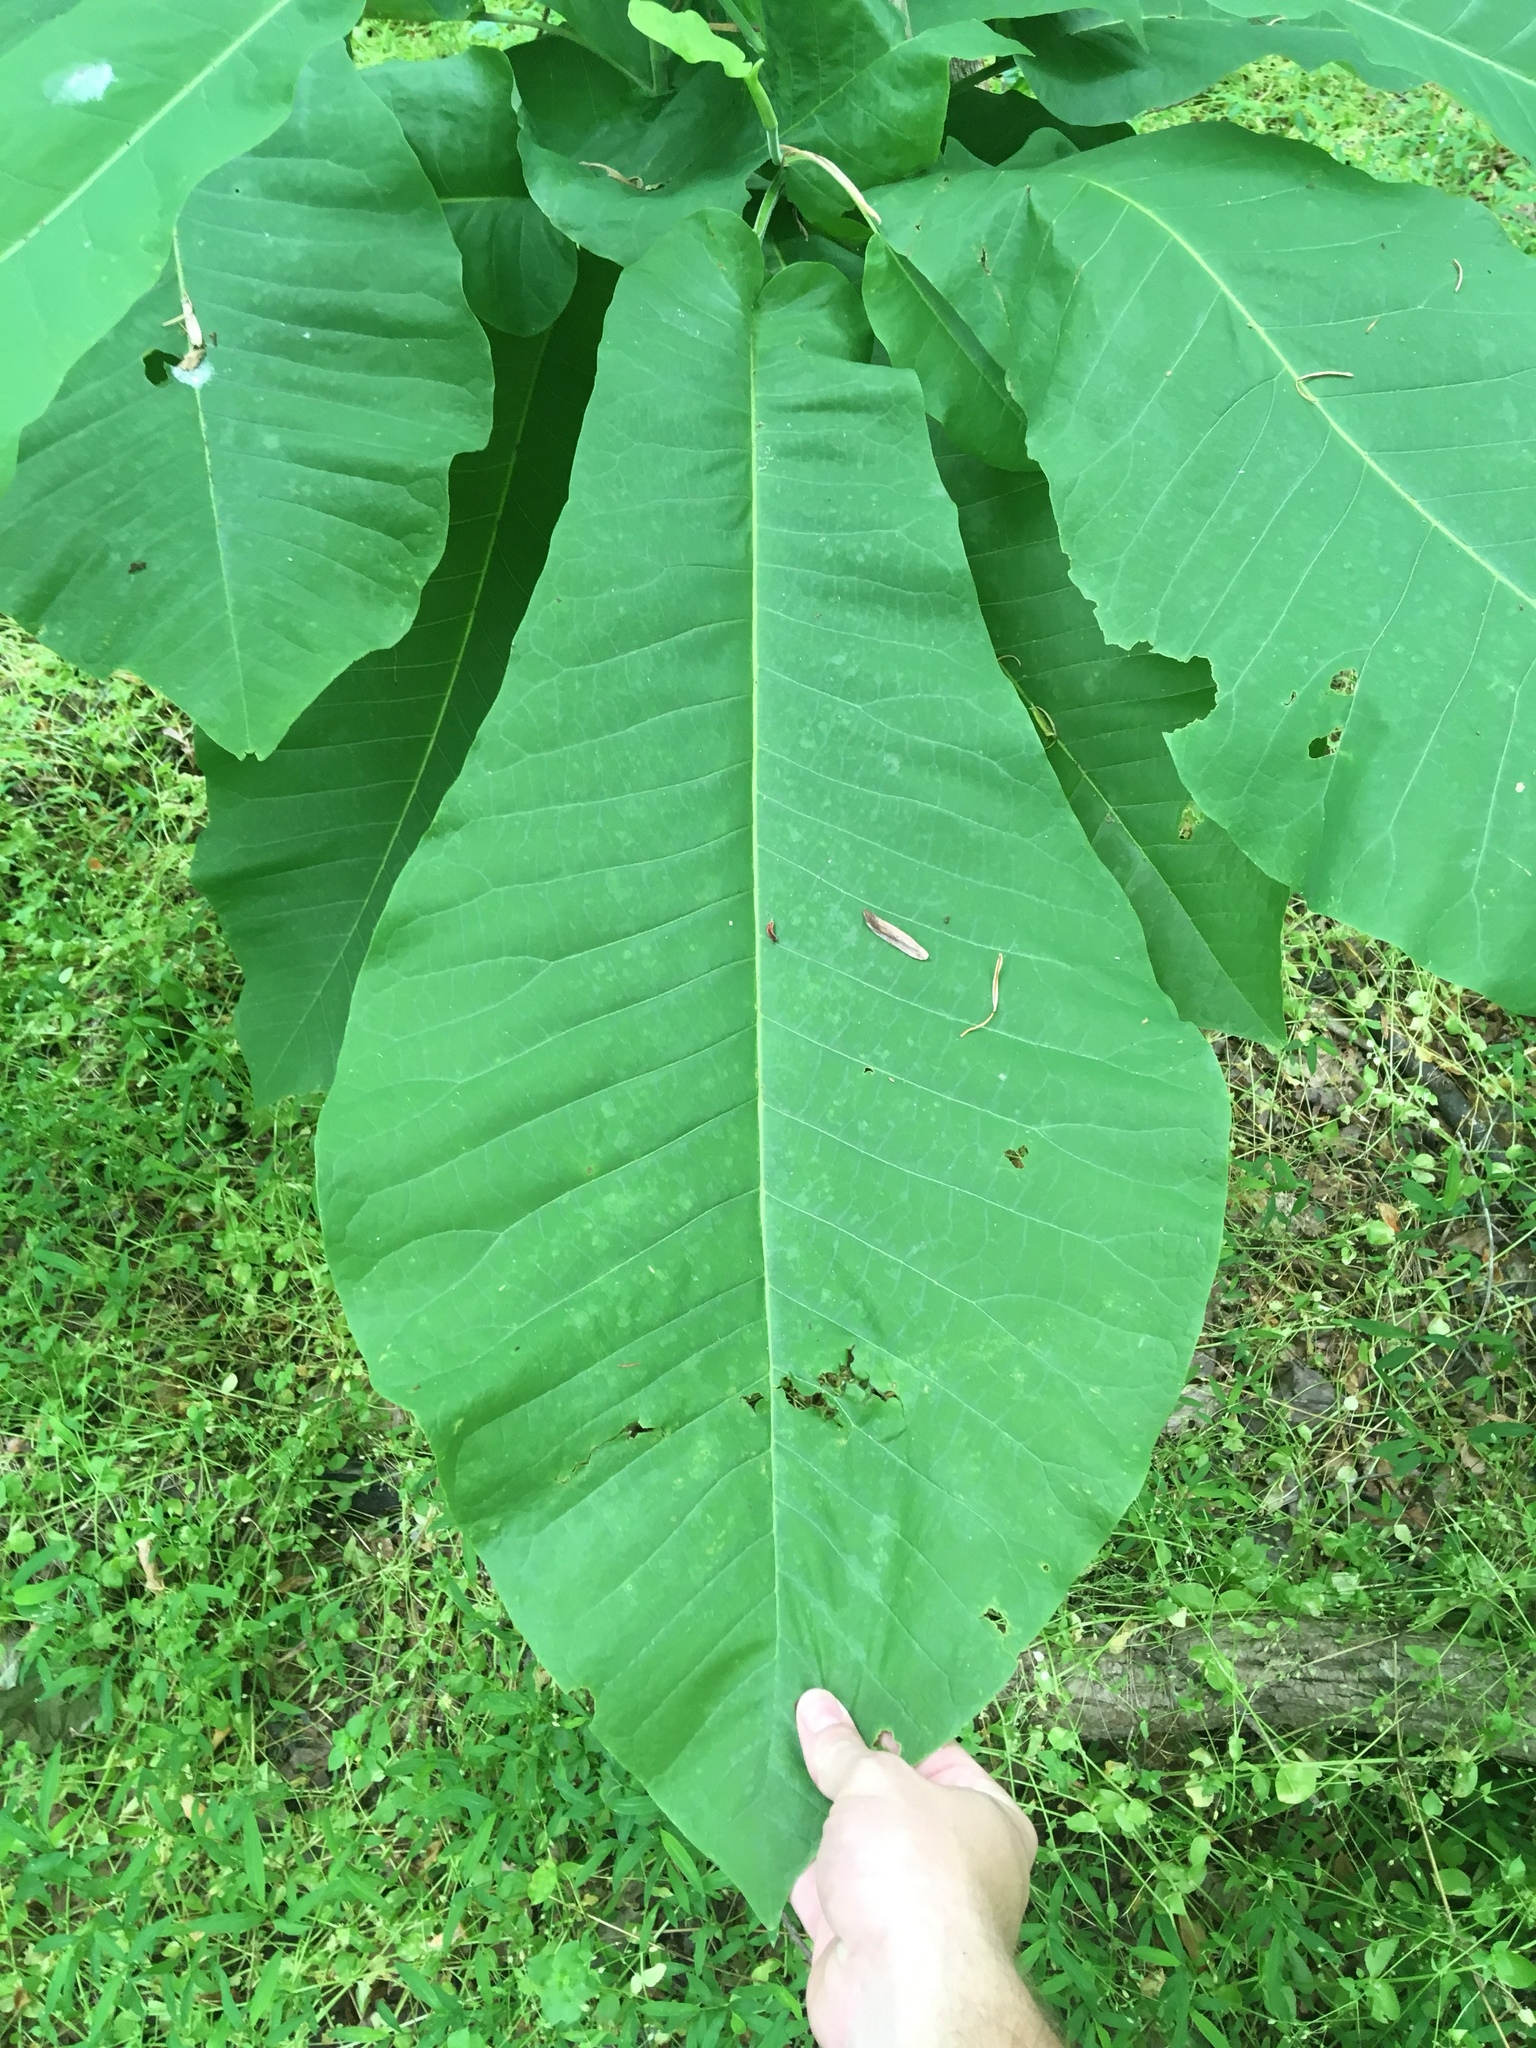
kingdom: Plantae
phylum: Tracheophyta
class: Magnoliopsida
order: Magnoliales
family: Magnoliaceae
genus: Magnolia
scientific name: Magnolia macrophylla
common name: Big-leaf magnolia
